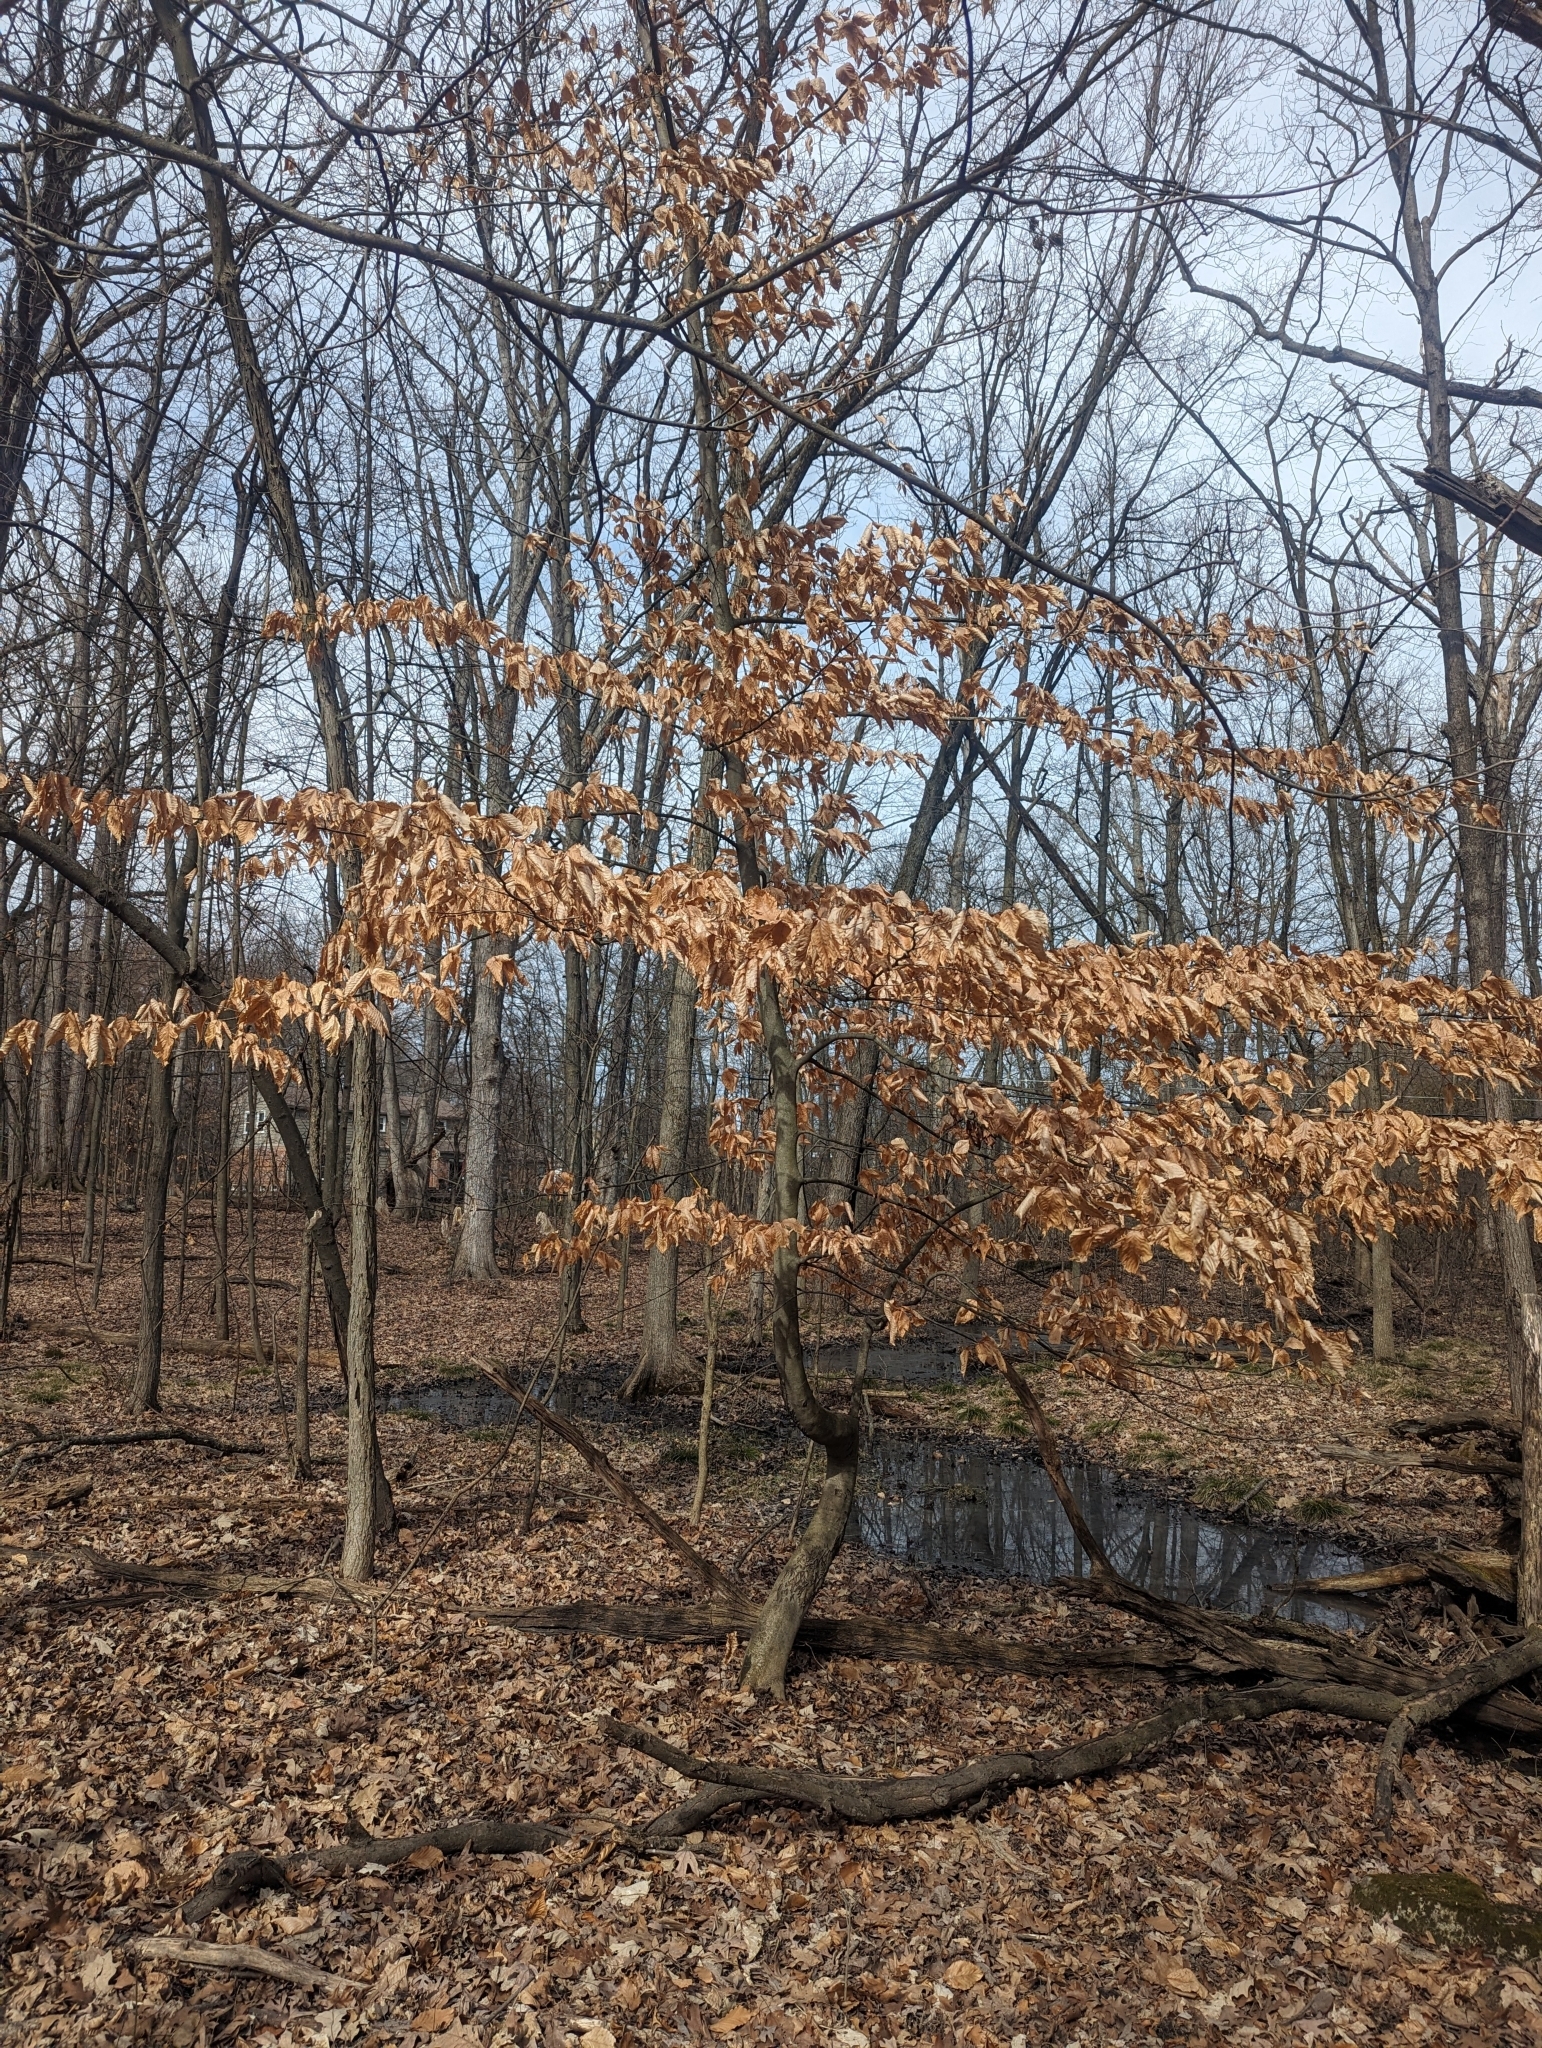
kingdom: Plantae
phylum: Tracheophyta
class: Magnoliopsida
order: Fagales
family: Fagaceae
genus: Fagus
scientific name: Fagus grandifolia
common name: American beech
